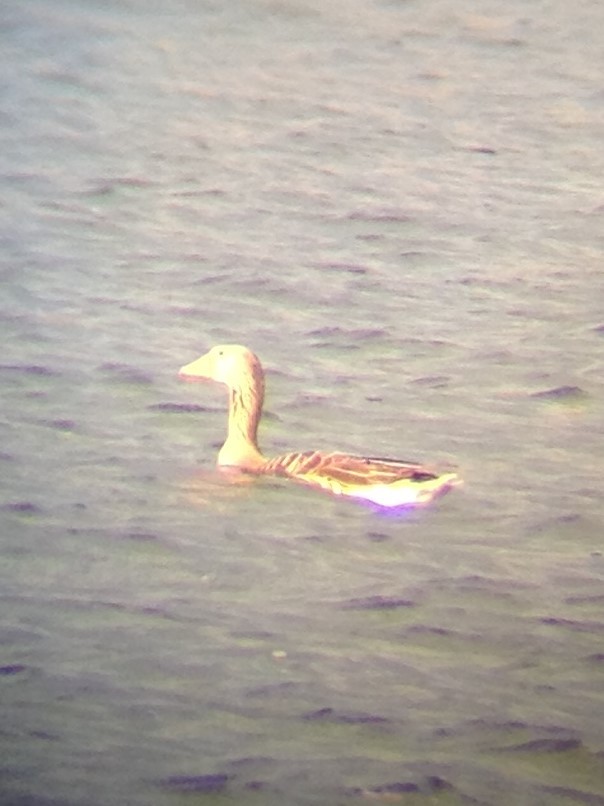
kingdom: Animalia
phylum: Chordata
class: Aves
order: Anseriformes
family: Anatidae
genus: Anser
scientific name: Anser anser
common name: Greylag goose
